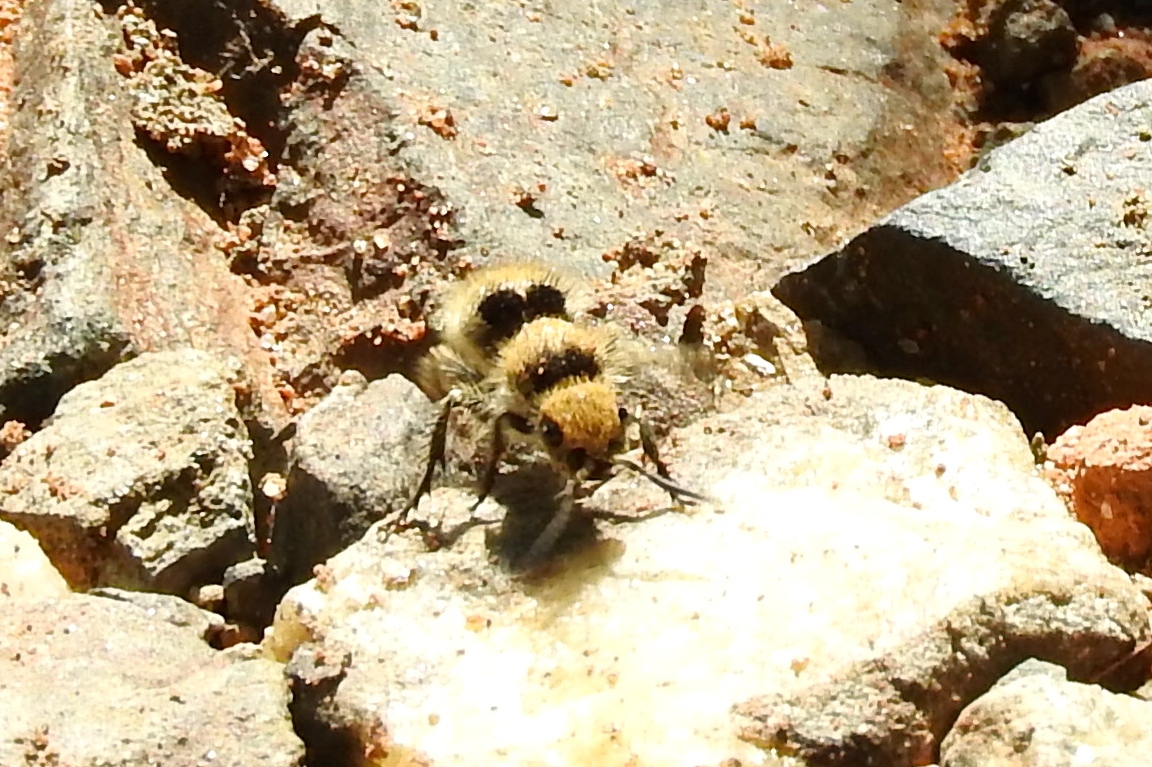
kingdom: Animalia
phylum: Arthropoda
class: Insecta
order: Hymenoptera
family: Mutillidae
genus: Dasymutilla
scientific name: Dasymutilla canella
